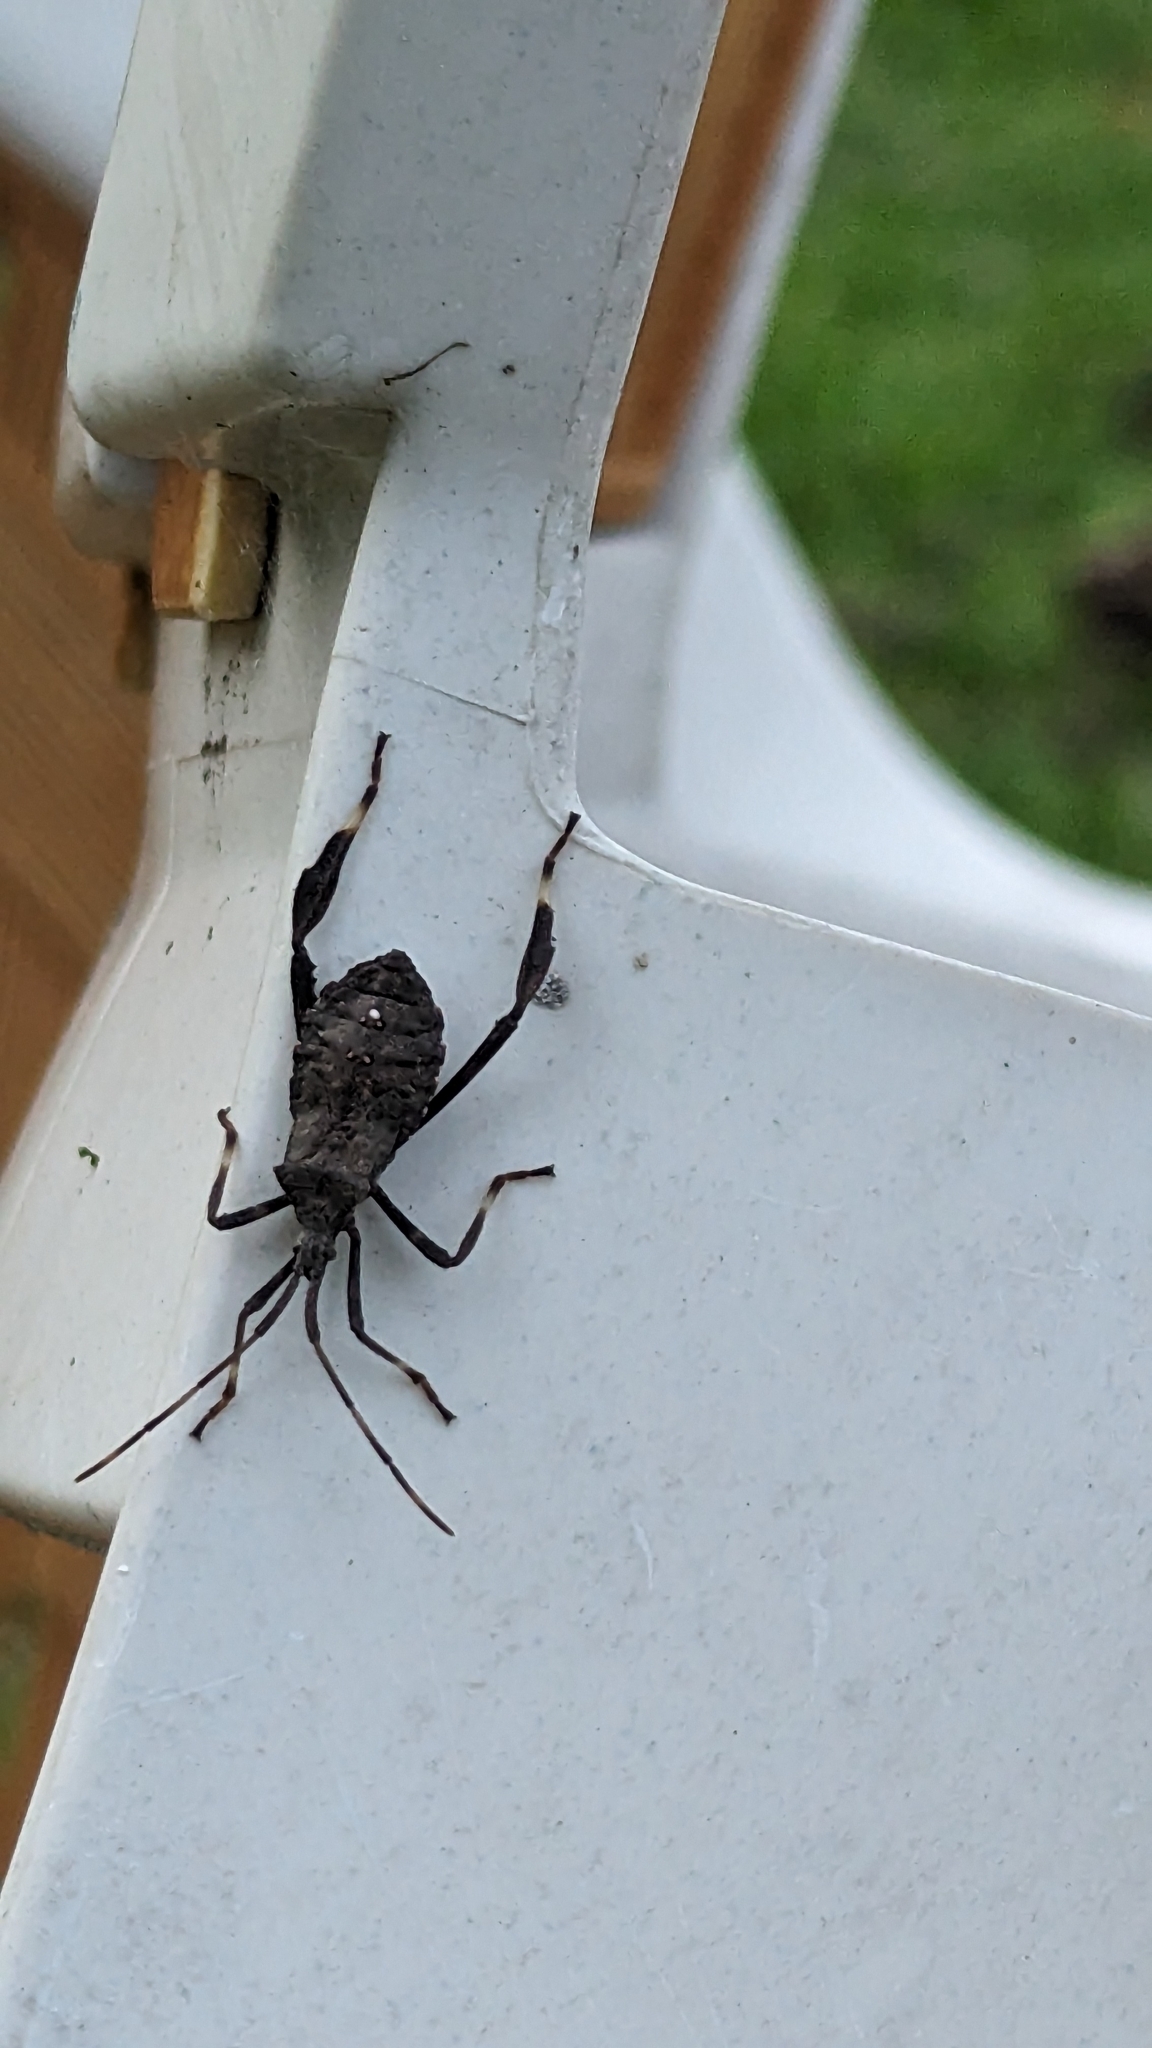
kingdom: Animalia
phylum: Arthropoda
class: Insecta
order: Hemiptera
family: Coreidae
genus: Acanthocephala
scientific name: Acanthocephala terminalis
